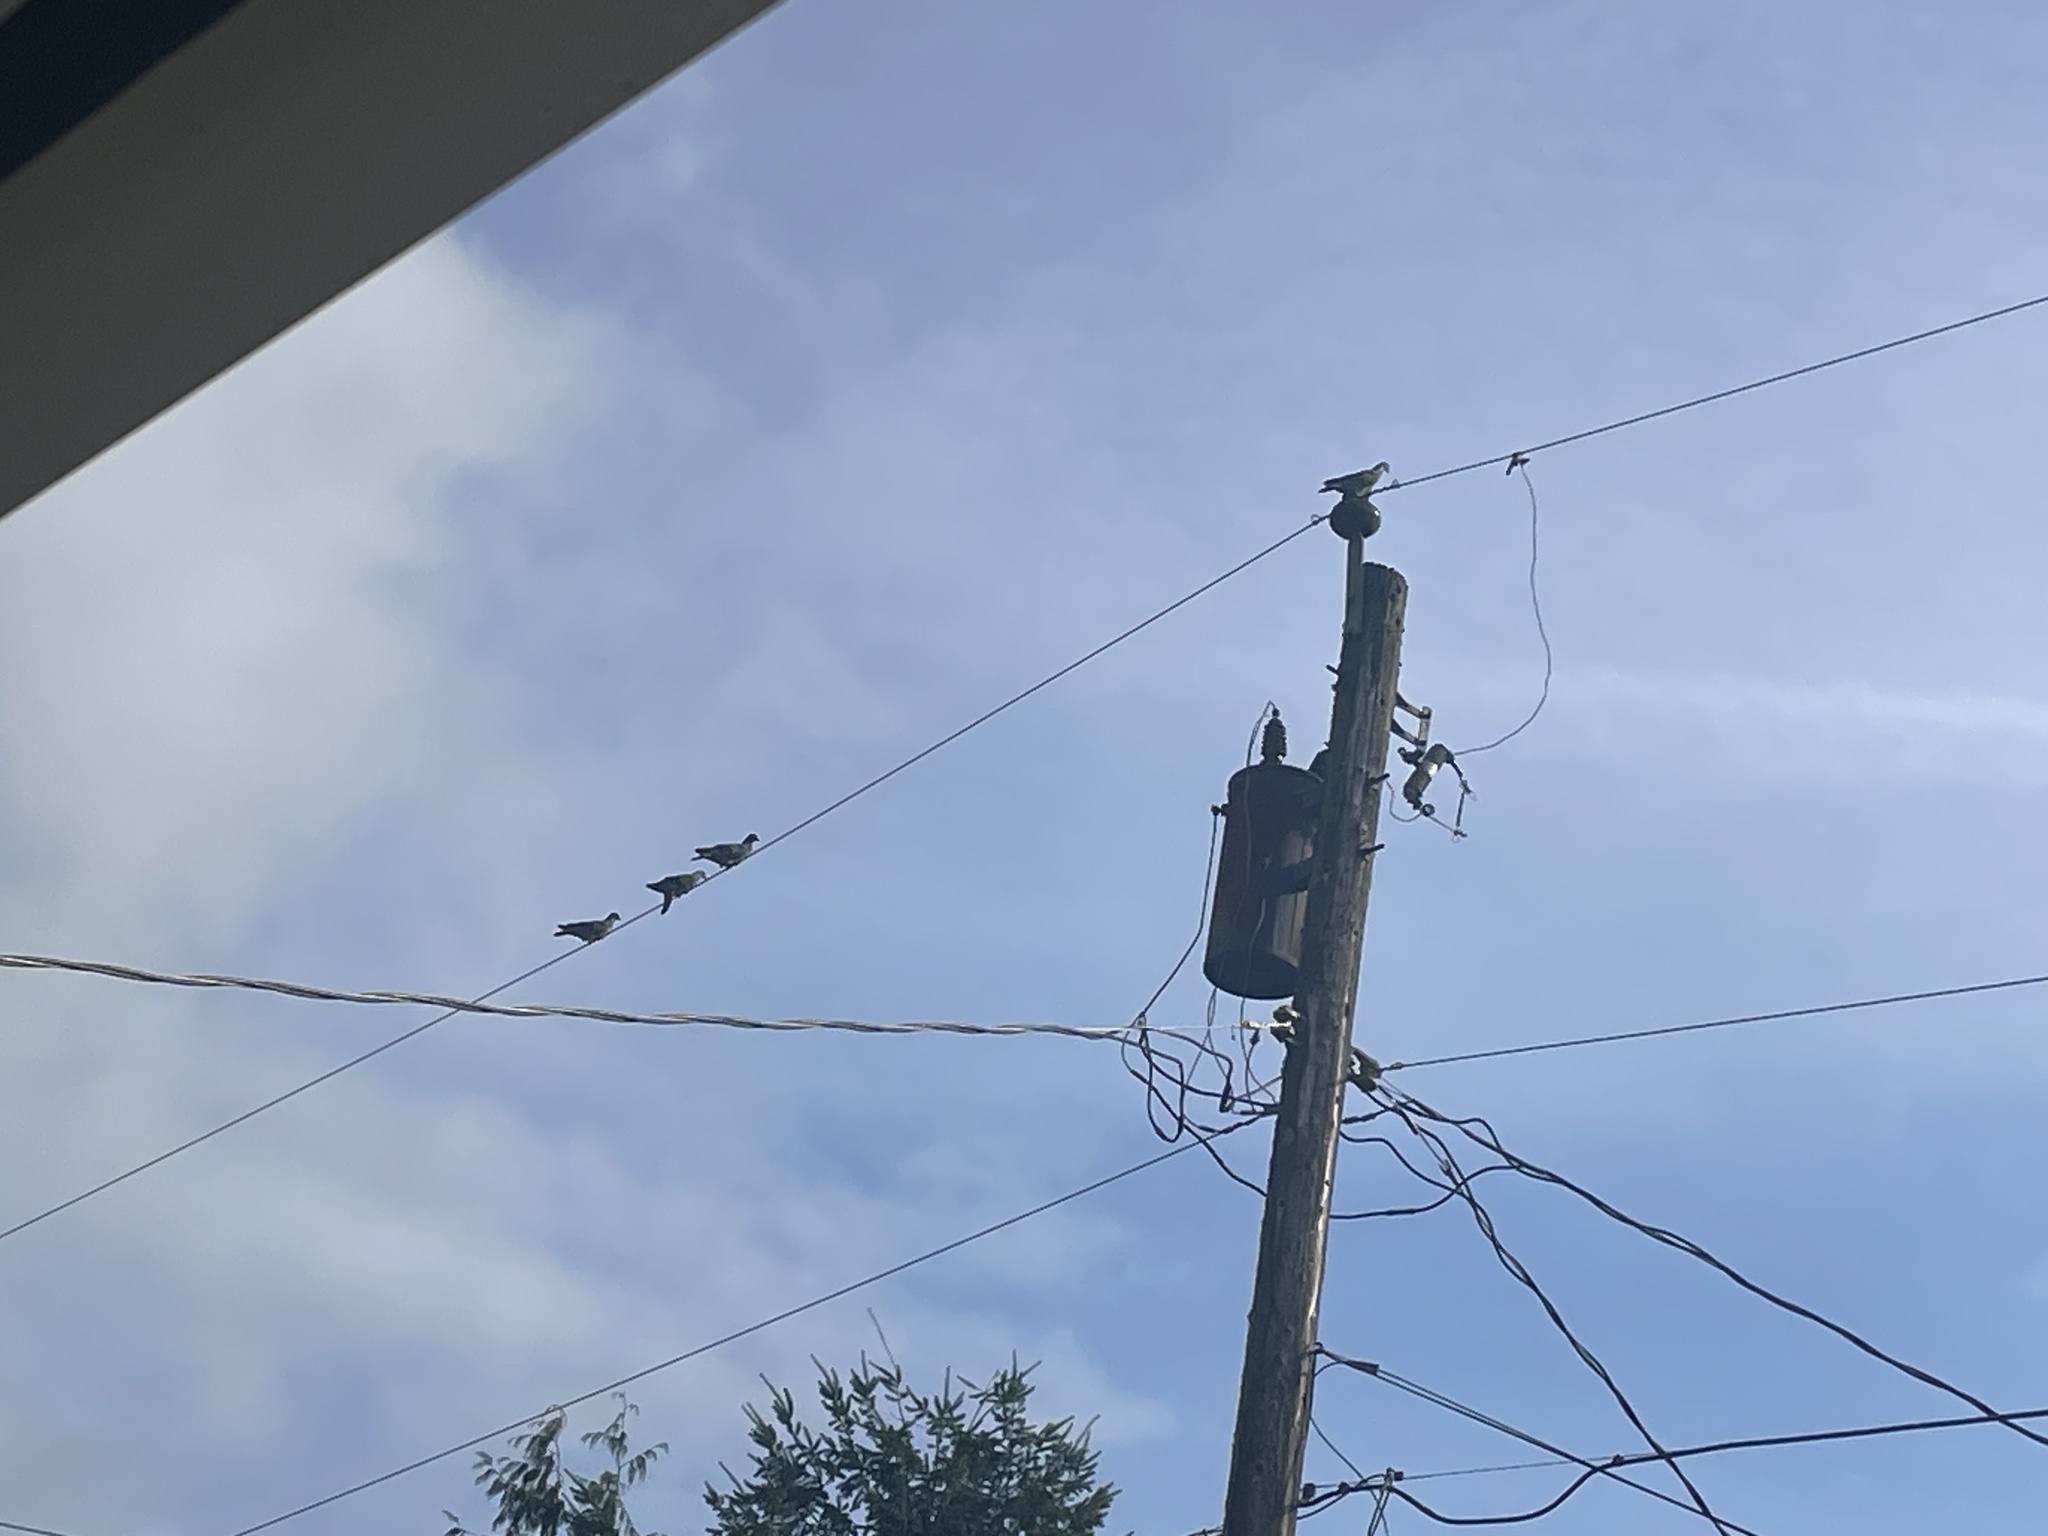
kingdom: Animalia
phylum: Chordata
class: Aves
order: Columbiformes
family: Columbidae
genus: Columba
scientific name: Columba livia
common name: Rock pigeon
